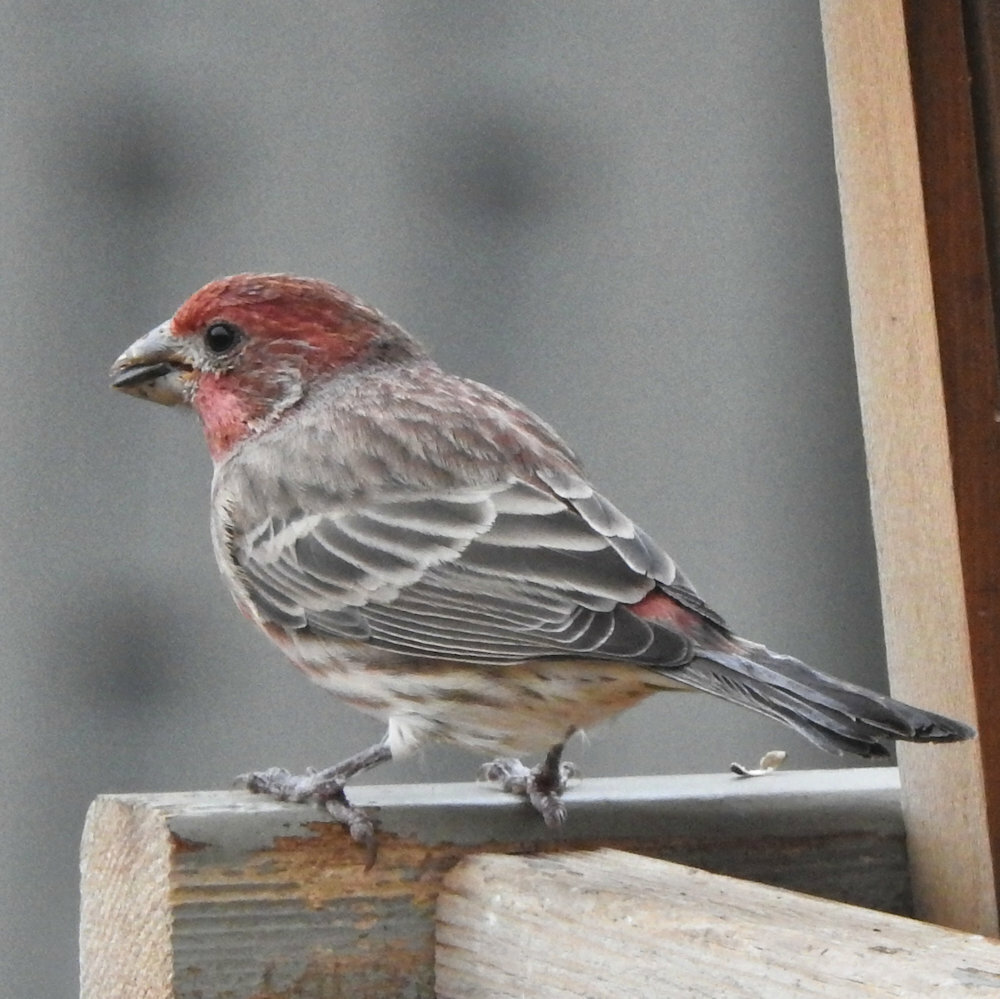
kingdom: Animalia
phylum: Chordata
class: Aves
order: Passeriformes
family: Fringillidae
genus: Haemorhous
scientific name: Haemorhous mexicanus
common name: House finch
